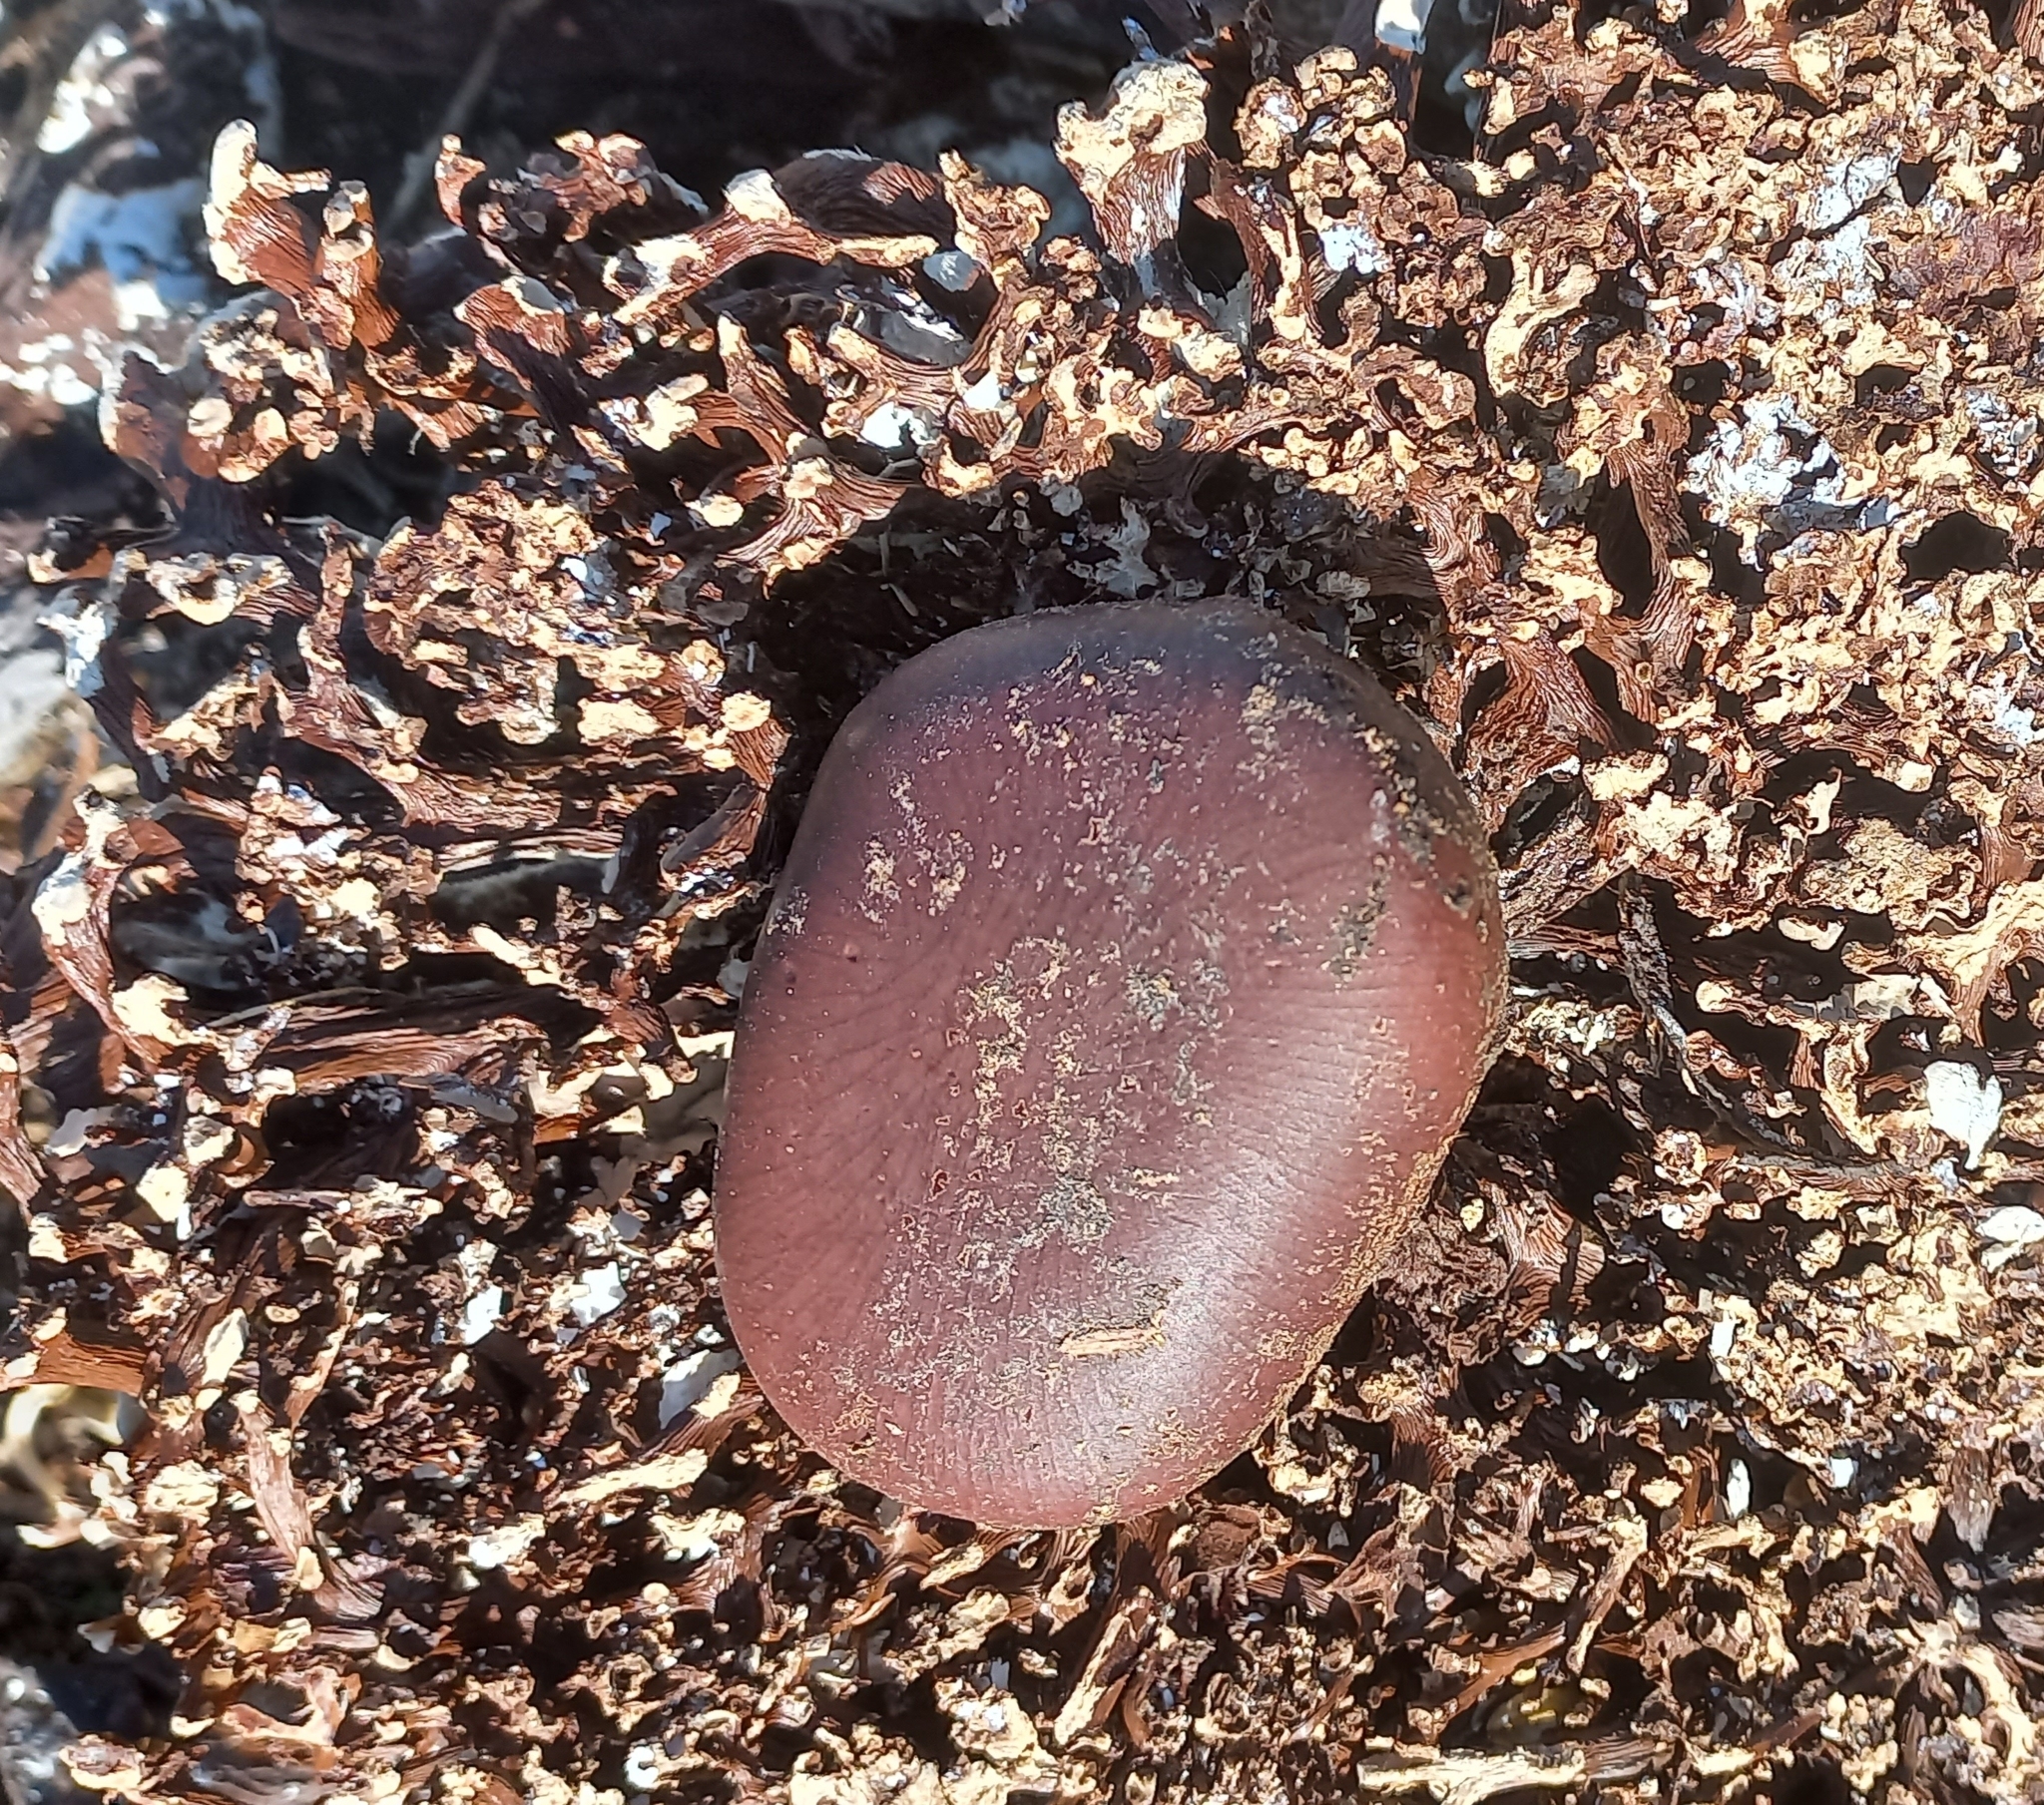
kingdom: Plantae
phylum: Tracheophyta
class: Magnoliopsida
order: Fabales
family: Fabaceae
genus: Entada
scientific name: Entada rheedei
